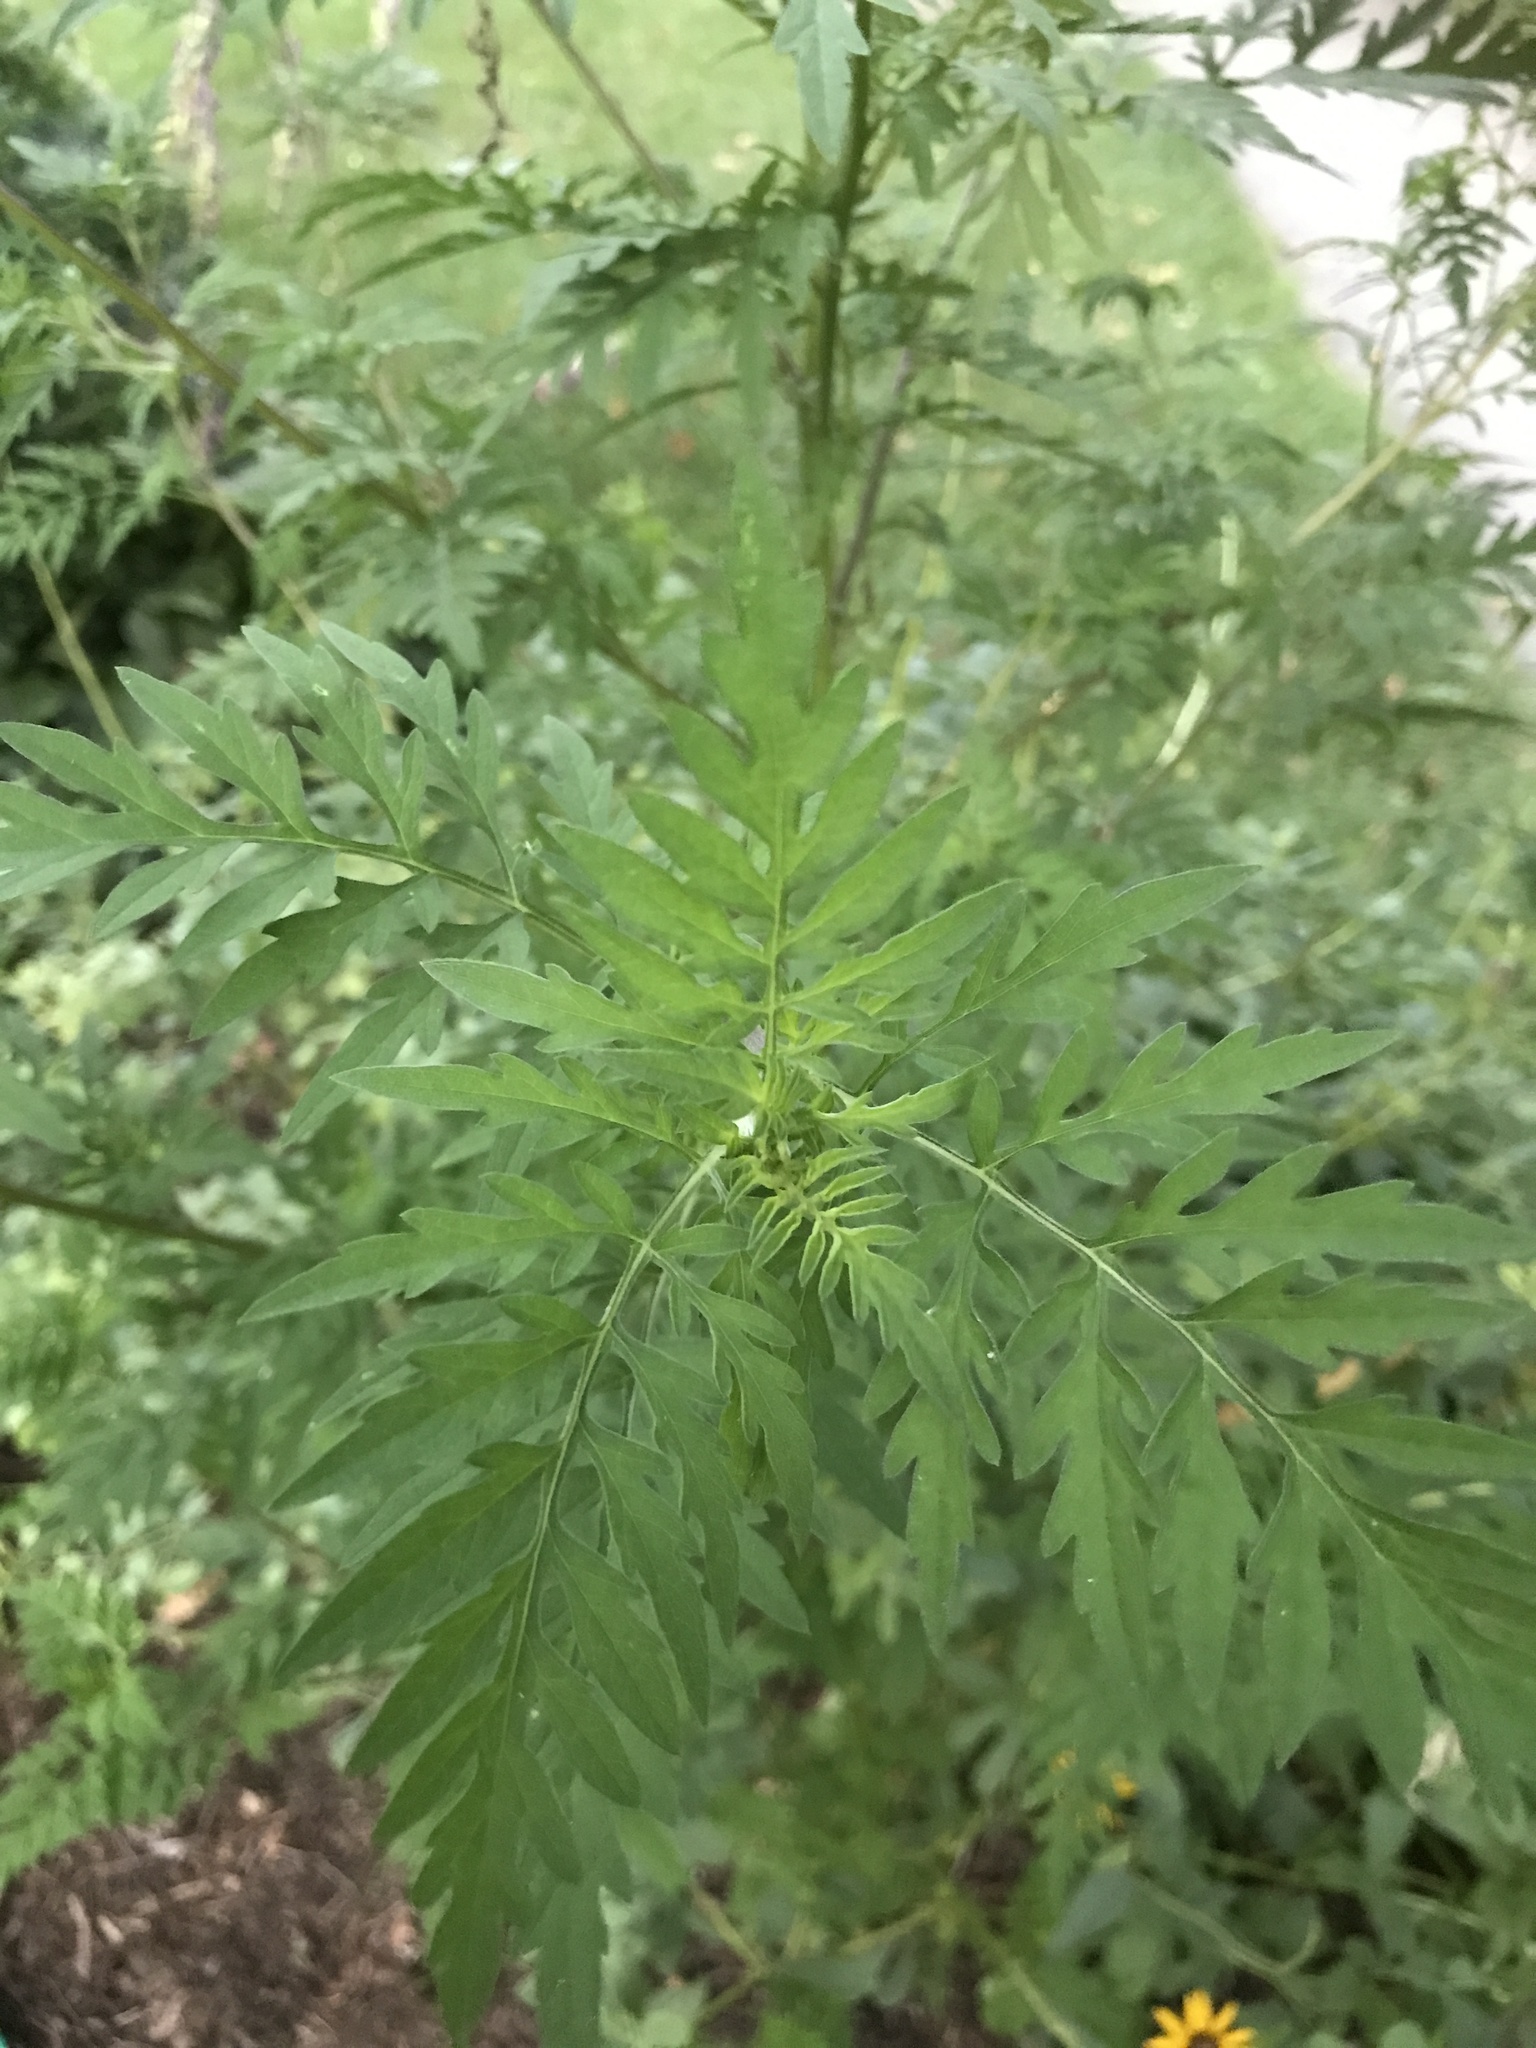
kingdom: Plantae
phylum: Tracheophyta
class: Magnoliopsida
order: Asterales
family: Asteraceae
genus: Ambrosia
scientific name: Ambrosia artemisiifolia
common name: Annual ragweed
